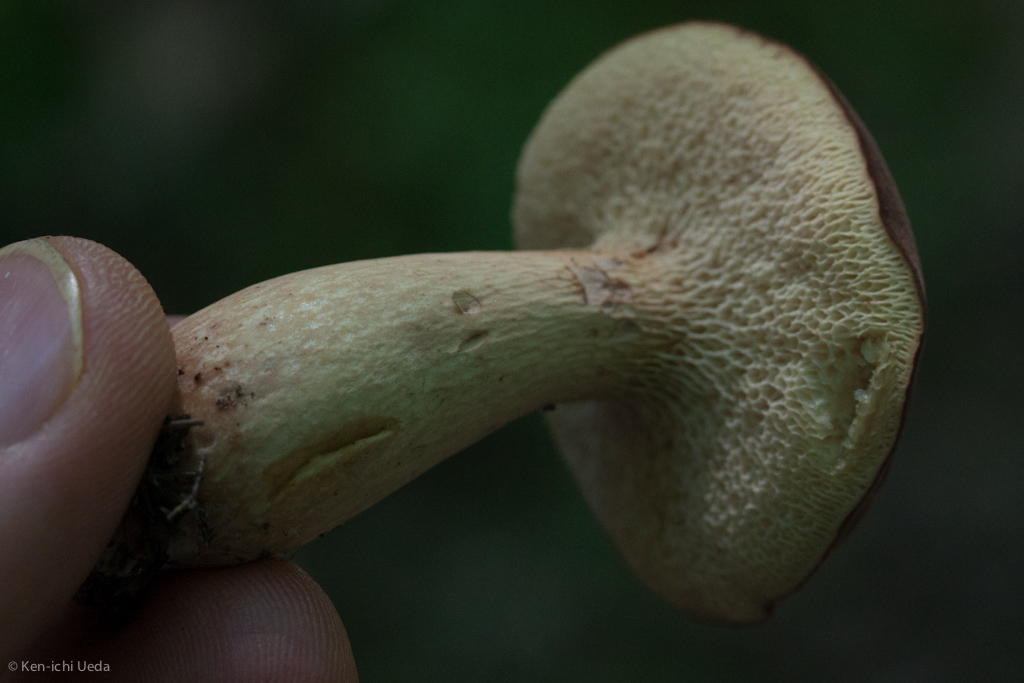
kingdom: Fungi
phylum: Basidiomycota
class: Agaricomycetes
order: Boletales
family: Boletaceae
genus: Bothia
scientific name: Bothia castanella
